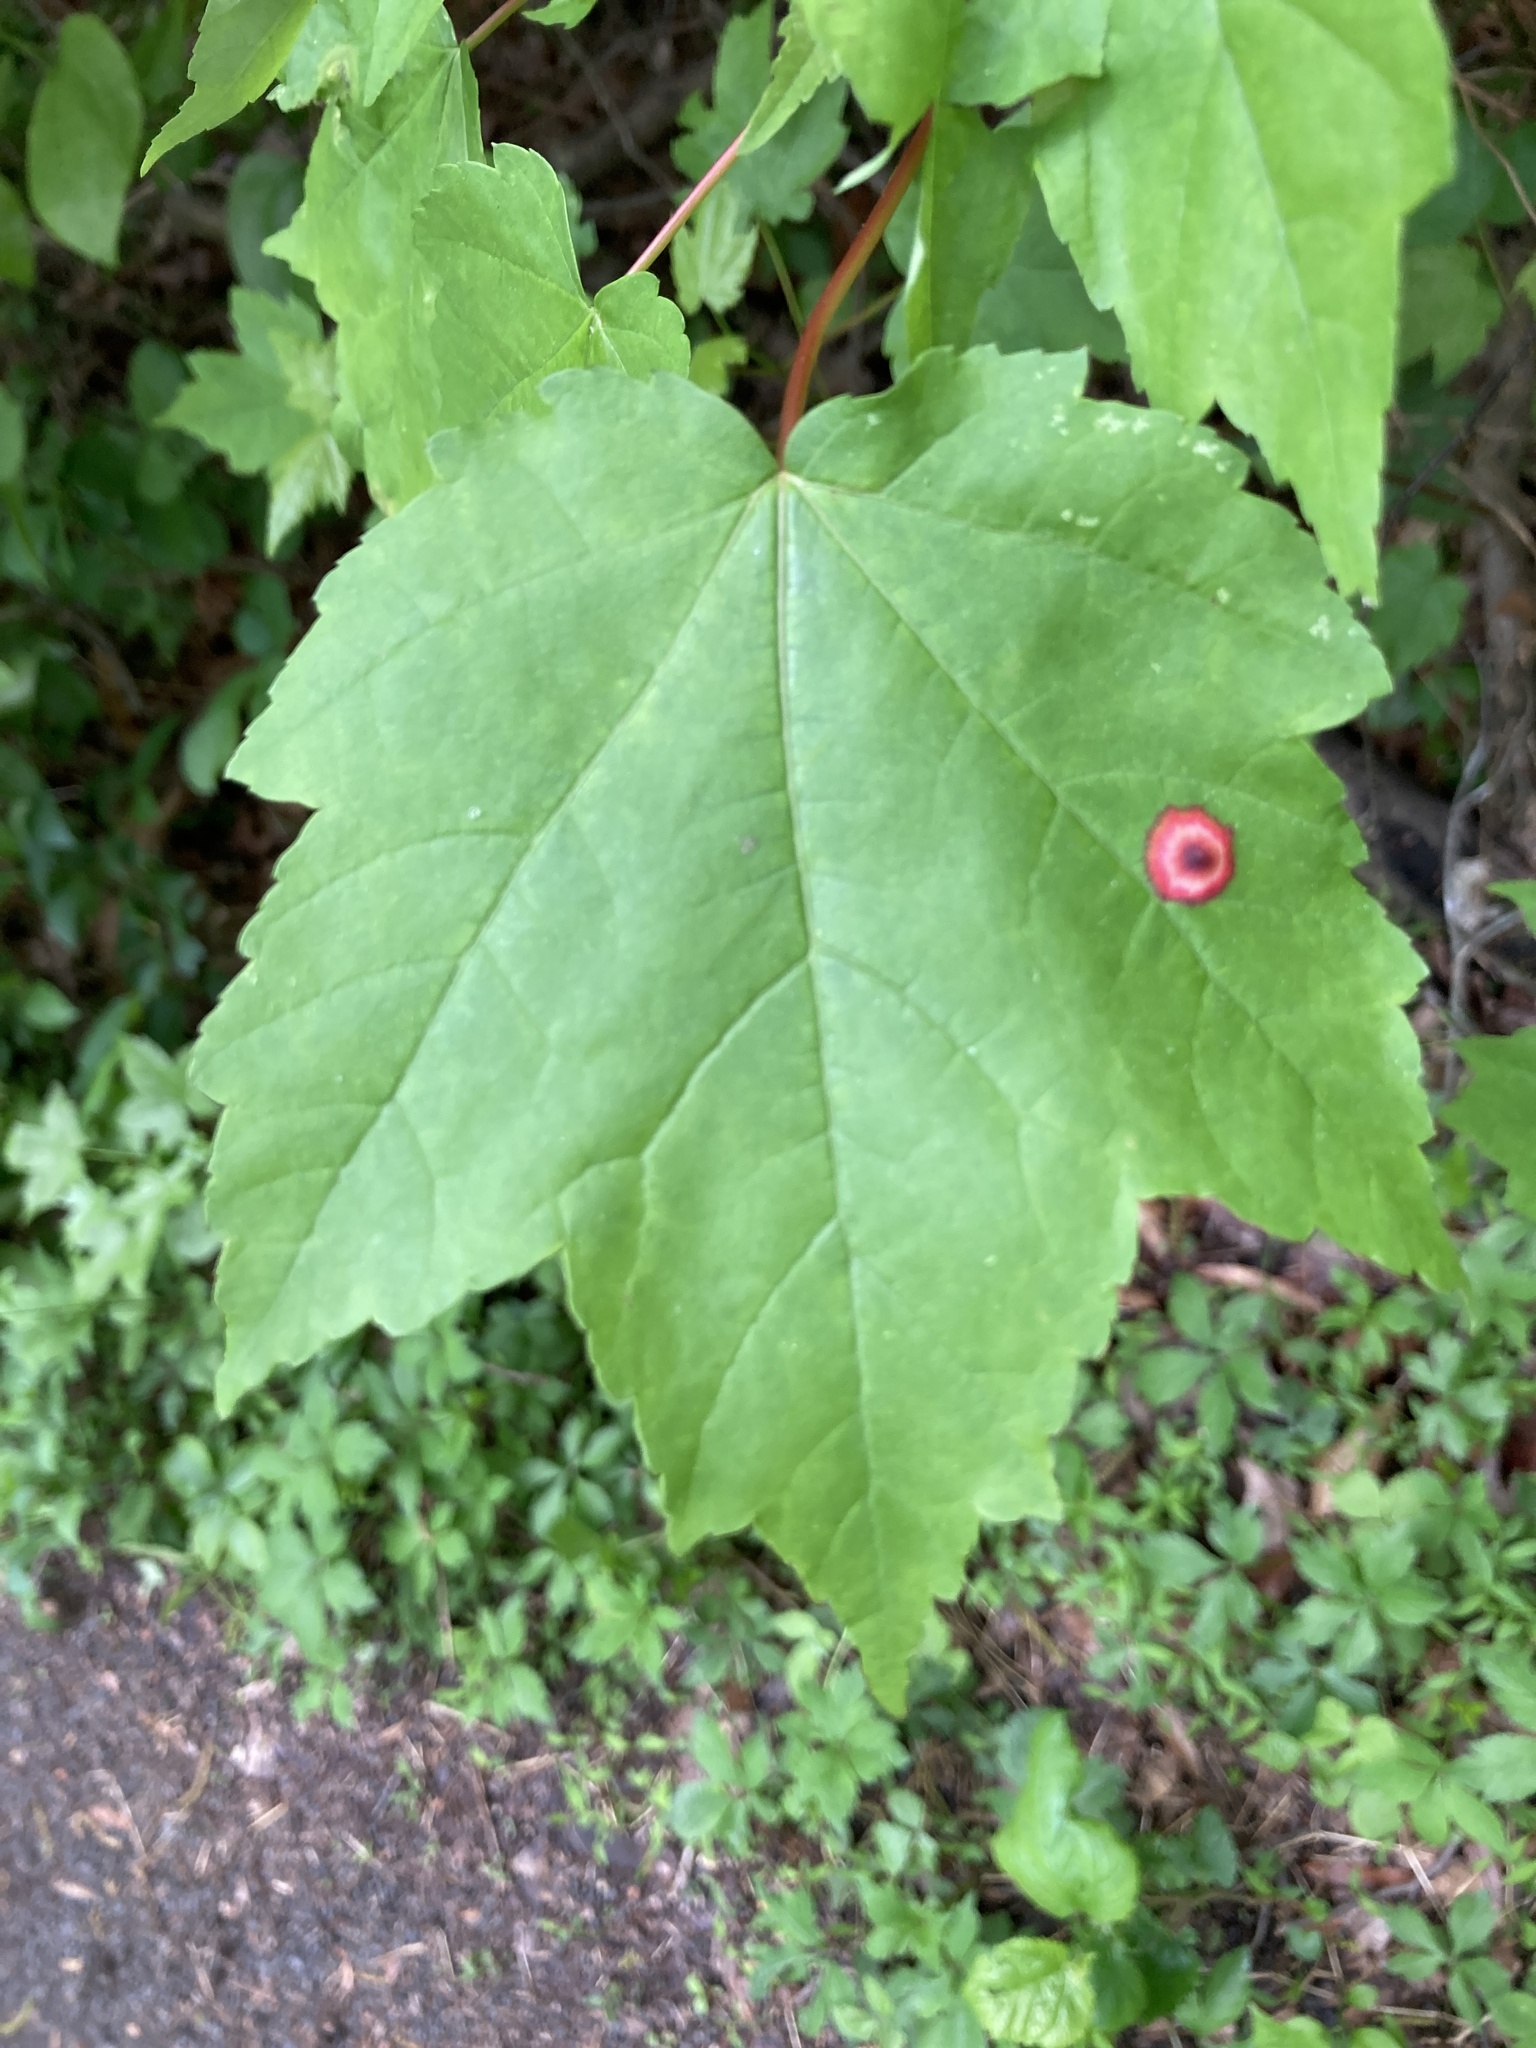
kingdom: Animalia
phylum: Arthropoda
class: Insecta
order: Diptera
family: Cecidomyiidae
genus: Acericecis
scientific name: Acericecis ocellaris
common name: Ocellate gall midge
